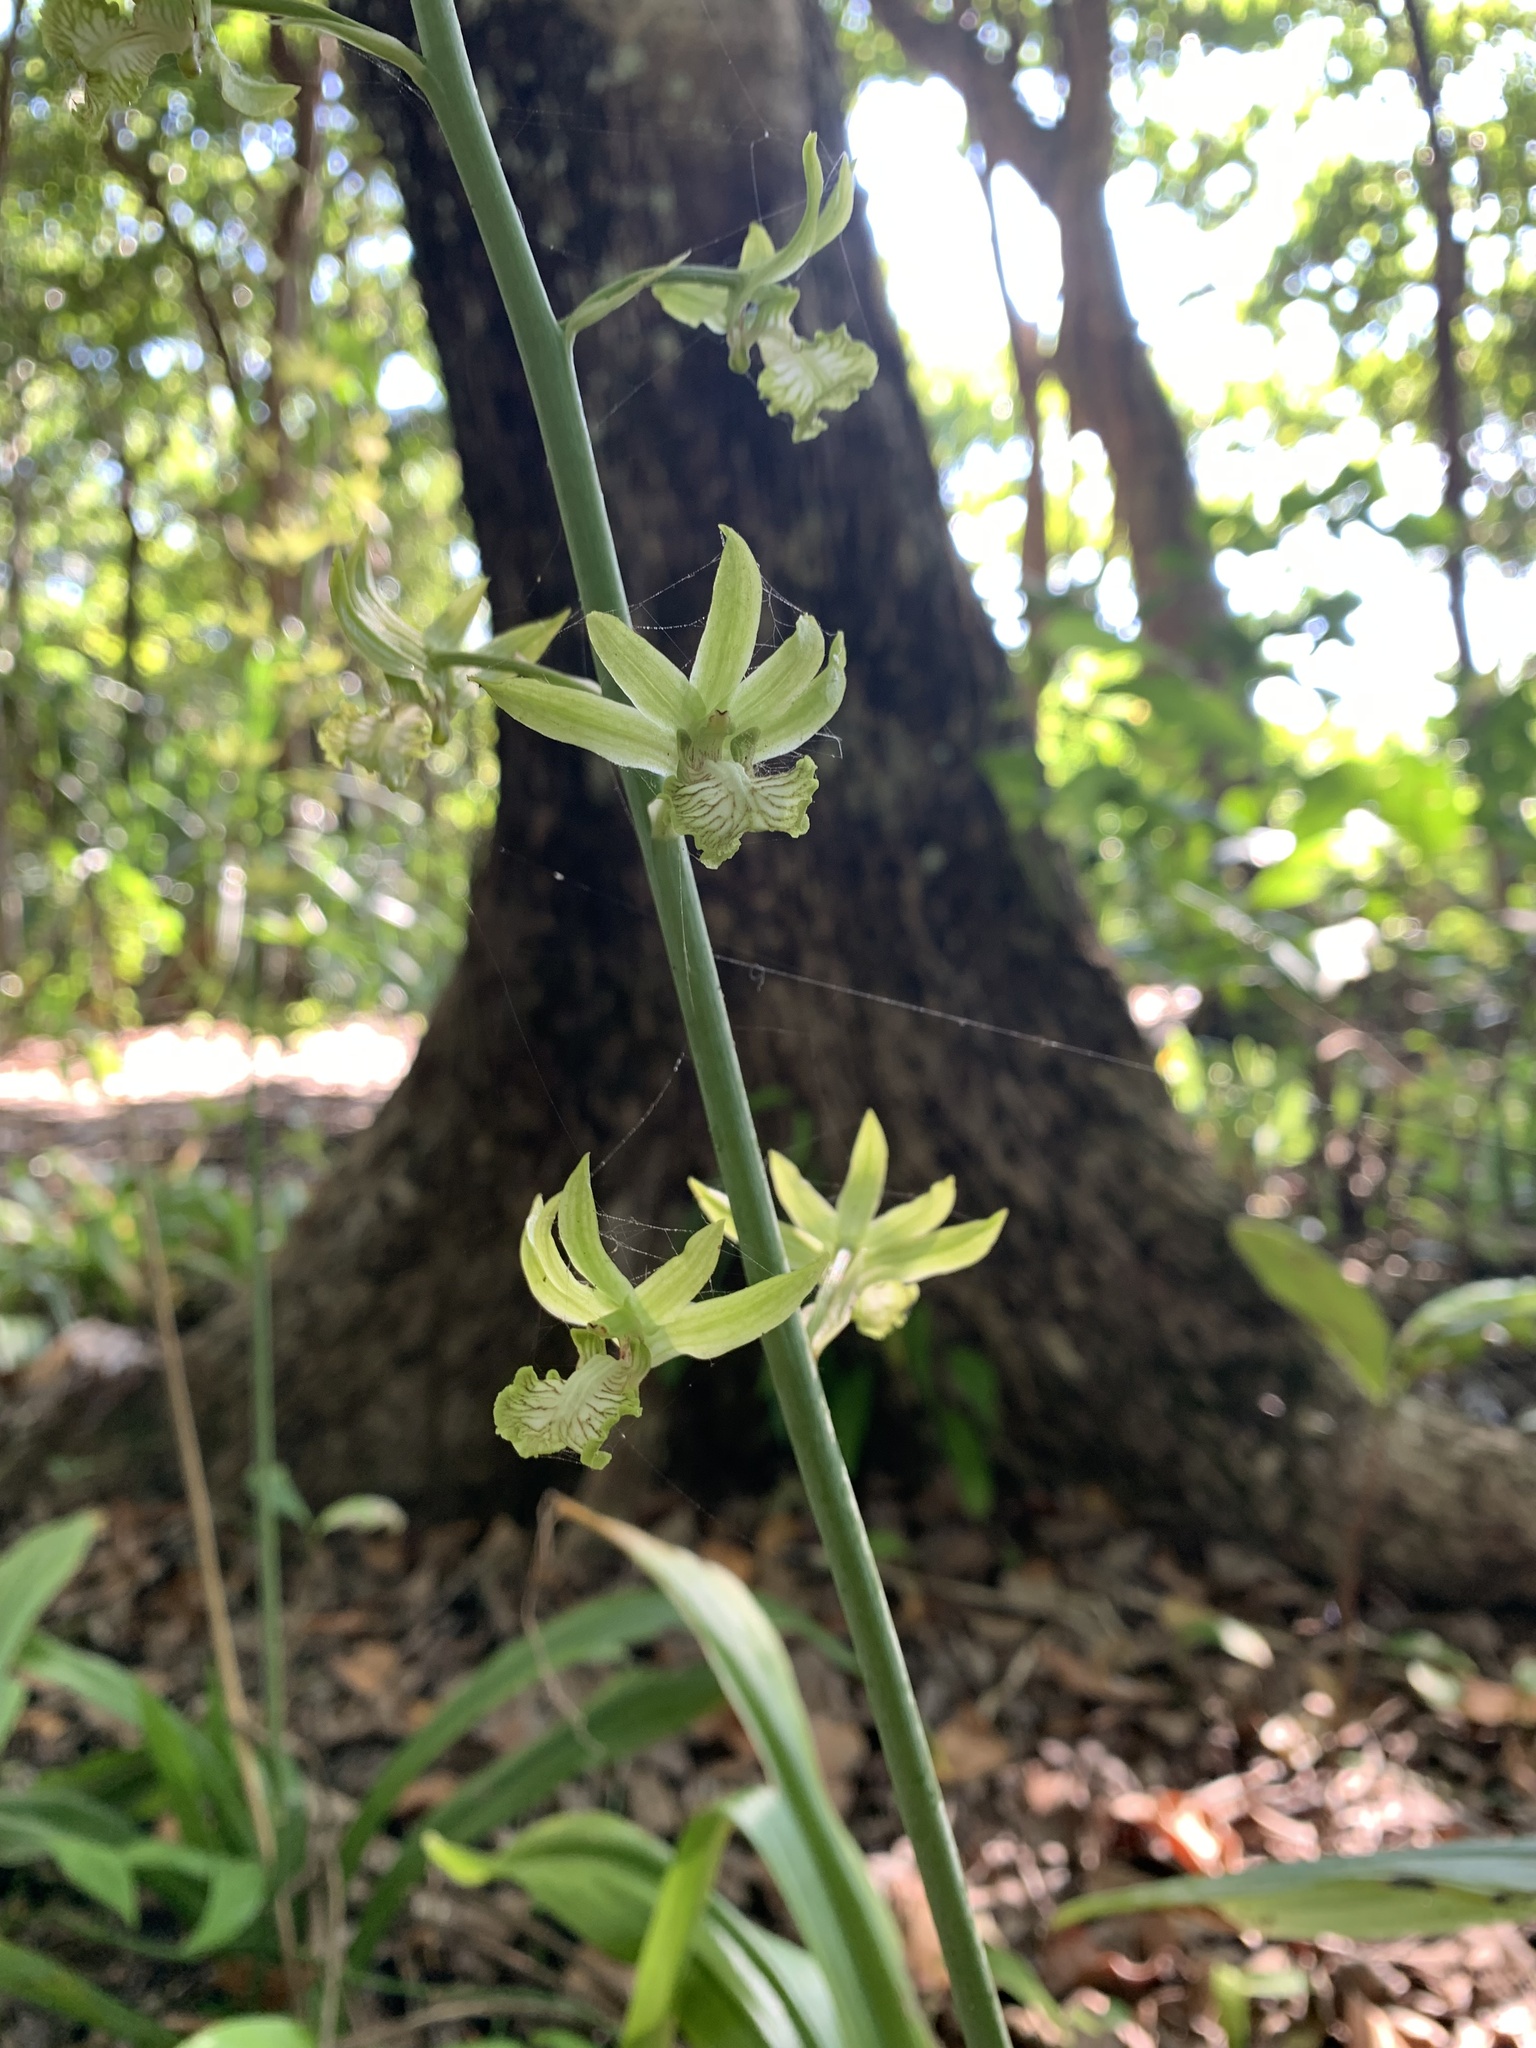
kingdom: Plantae
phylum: Tracheophyta
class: Liliopsida
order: Asparagales
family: Orchidaceae
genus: Eulophia
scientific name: Eulophia andamanensis
